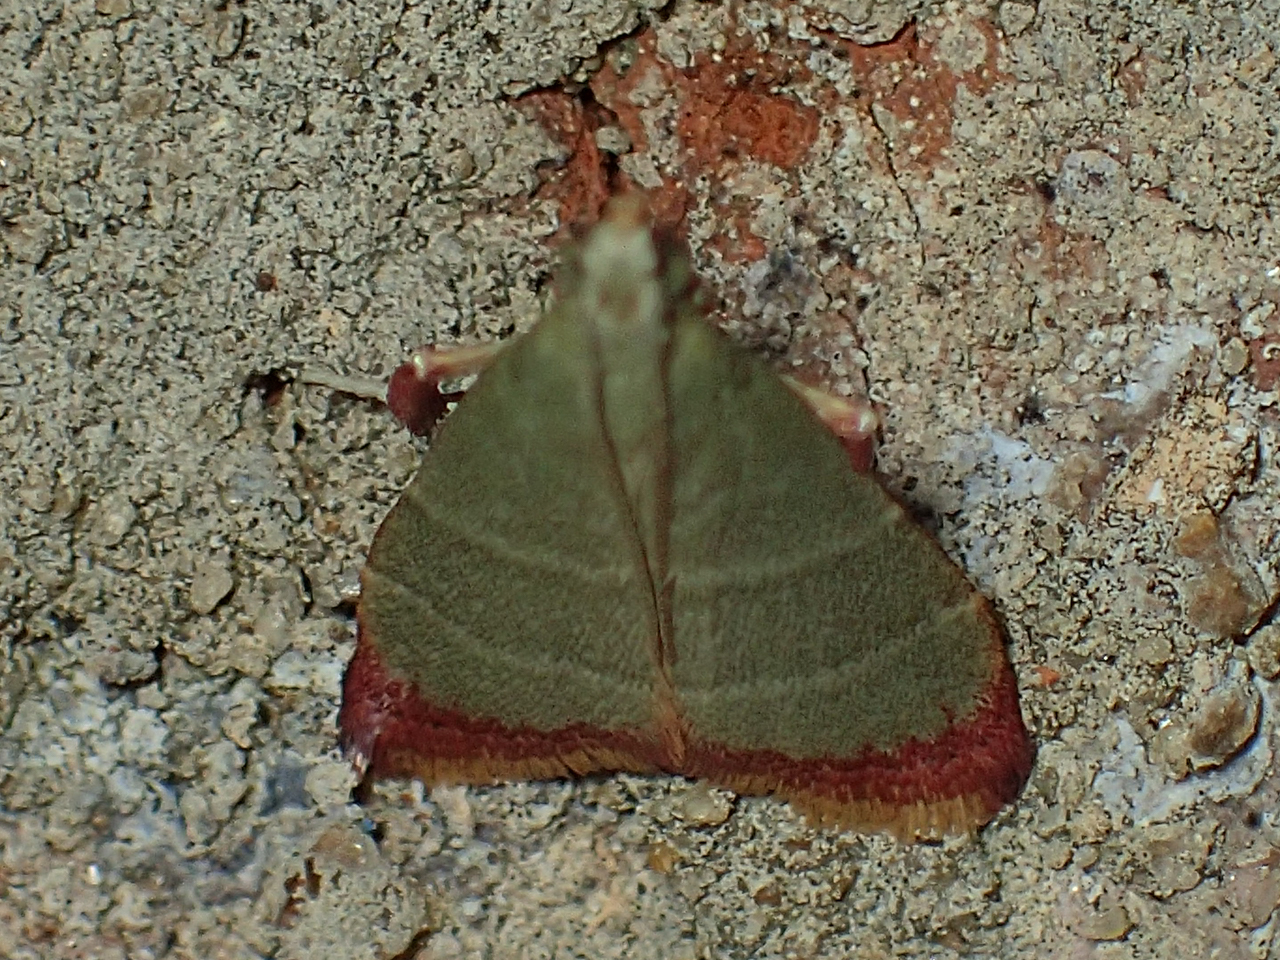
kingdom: Animalia
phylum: Arthropoda
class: Insecta
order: Lepidoptera
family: Pyralidae
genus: Arta
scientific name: Arta olivalis
